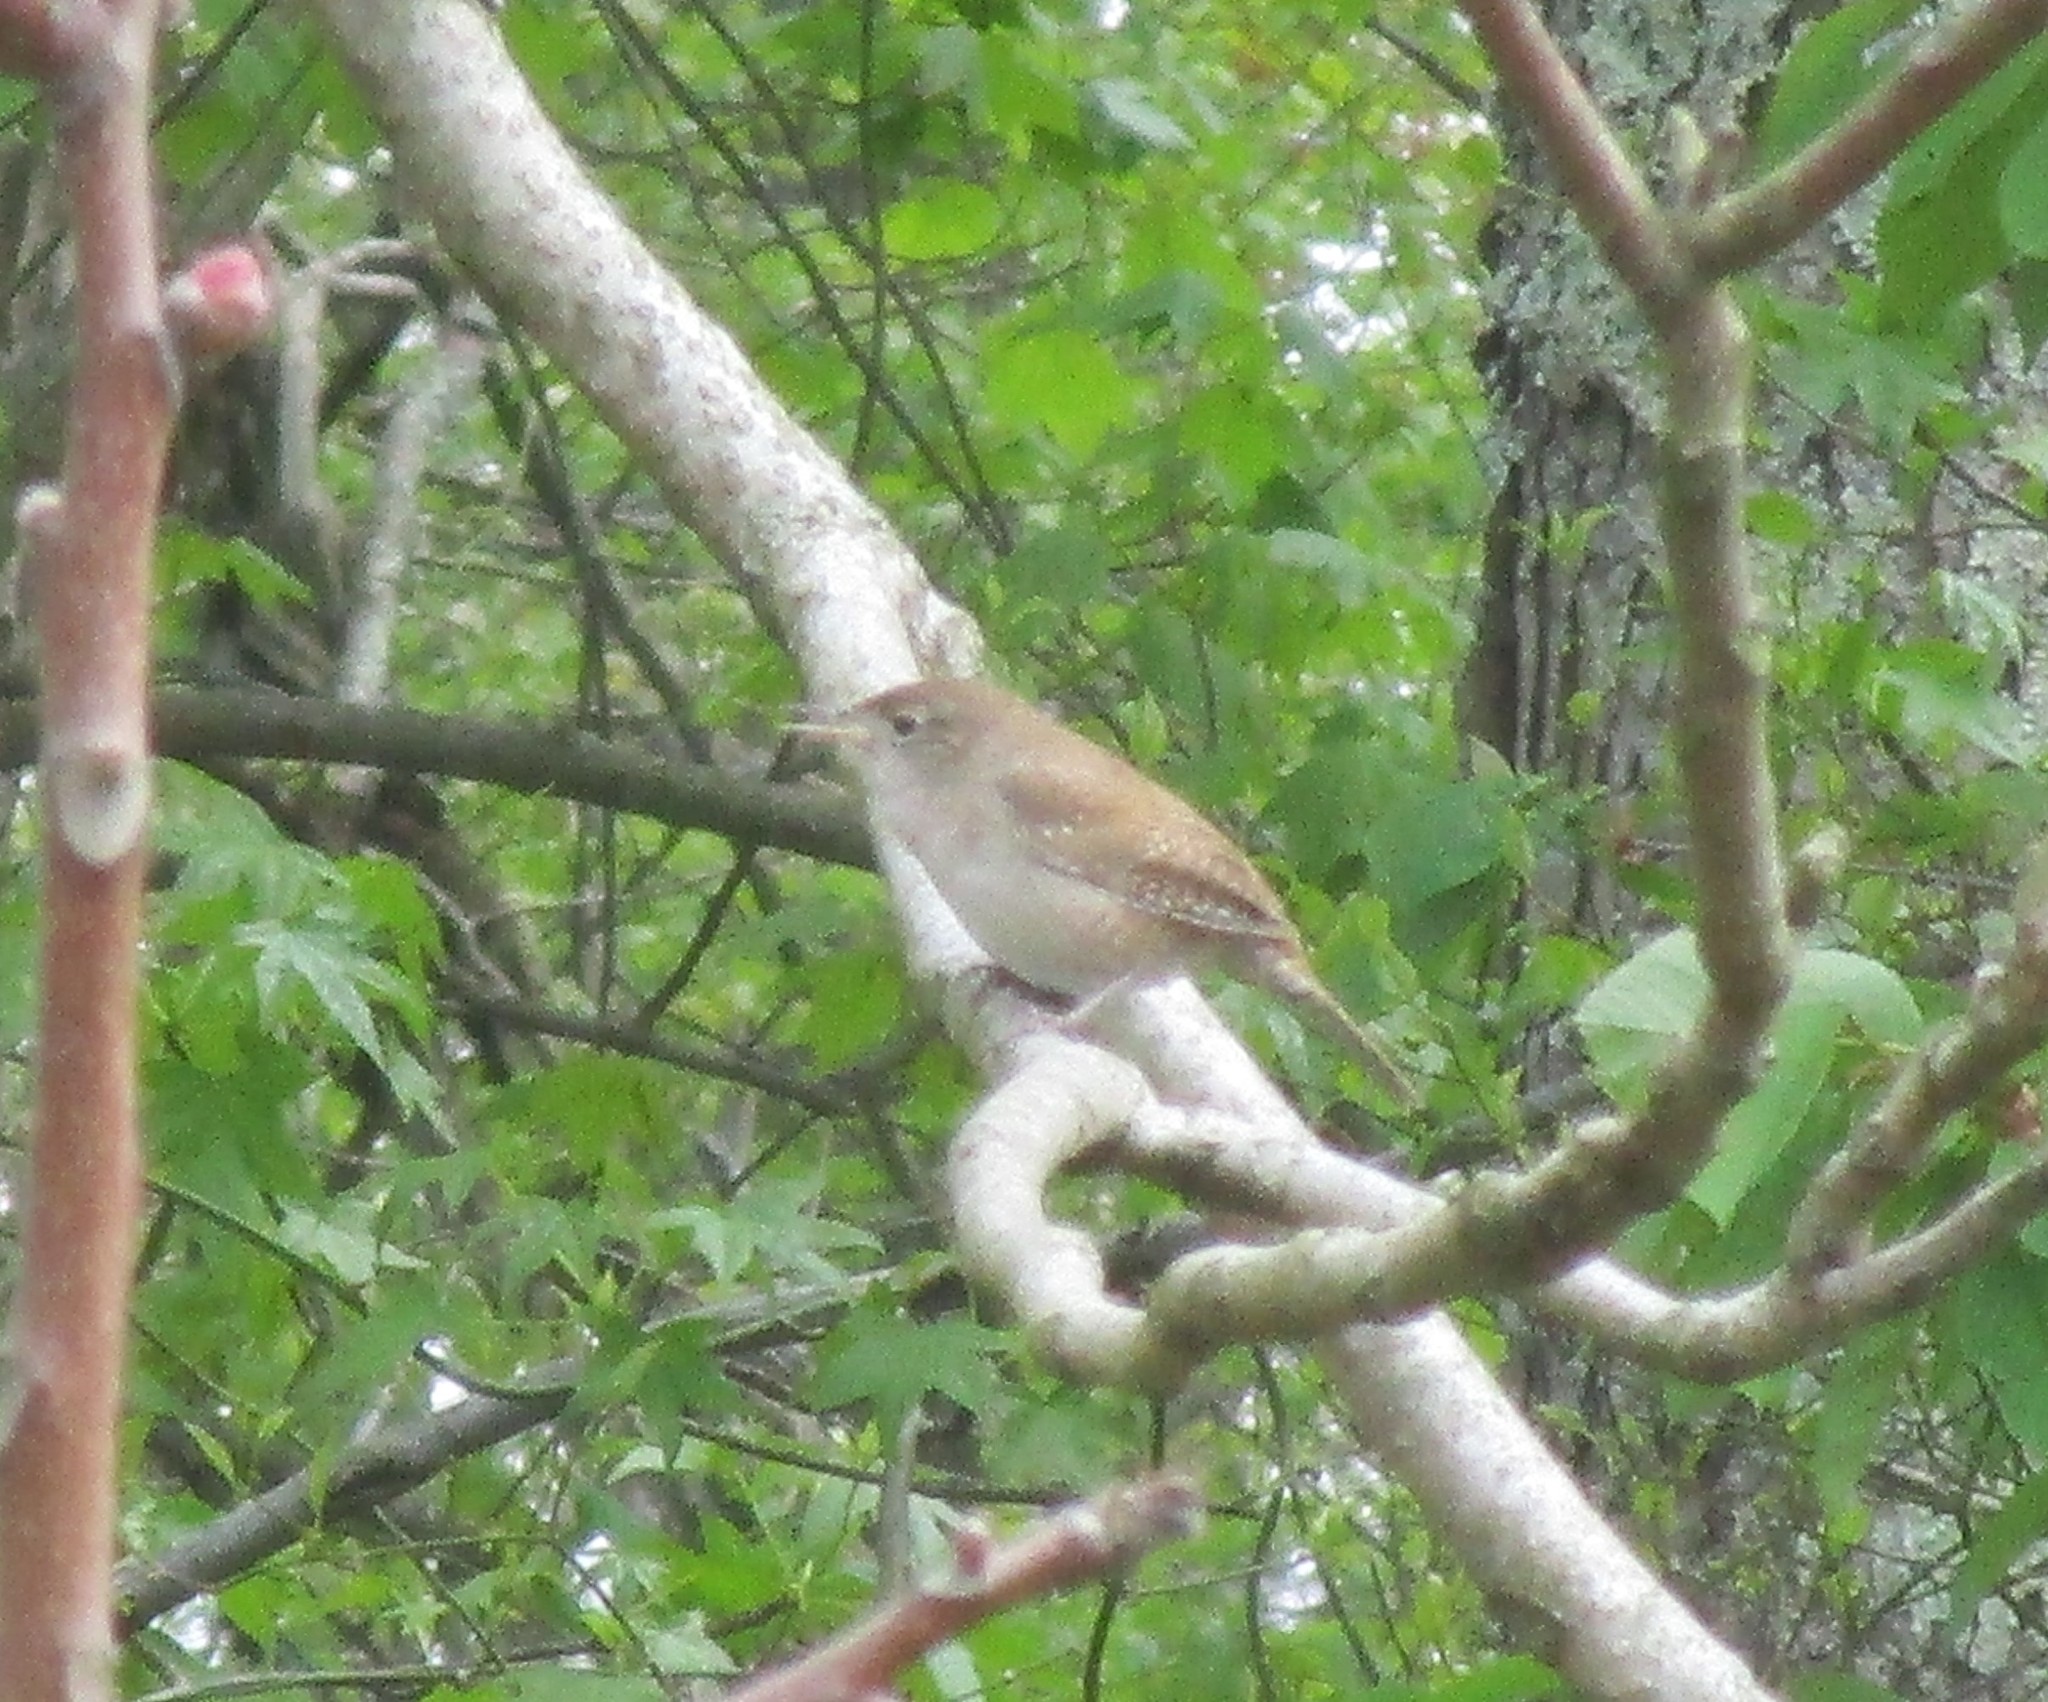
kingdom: Animalia
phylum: Chordata
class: Aves
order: Passeriformes
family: Troglodytidae
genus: Troglodytes
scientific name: Troglodytes aedon
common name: House wren
